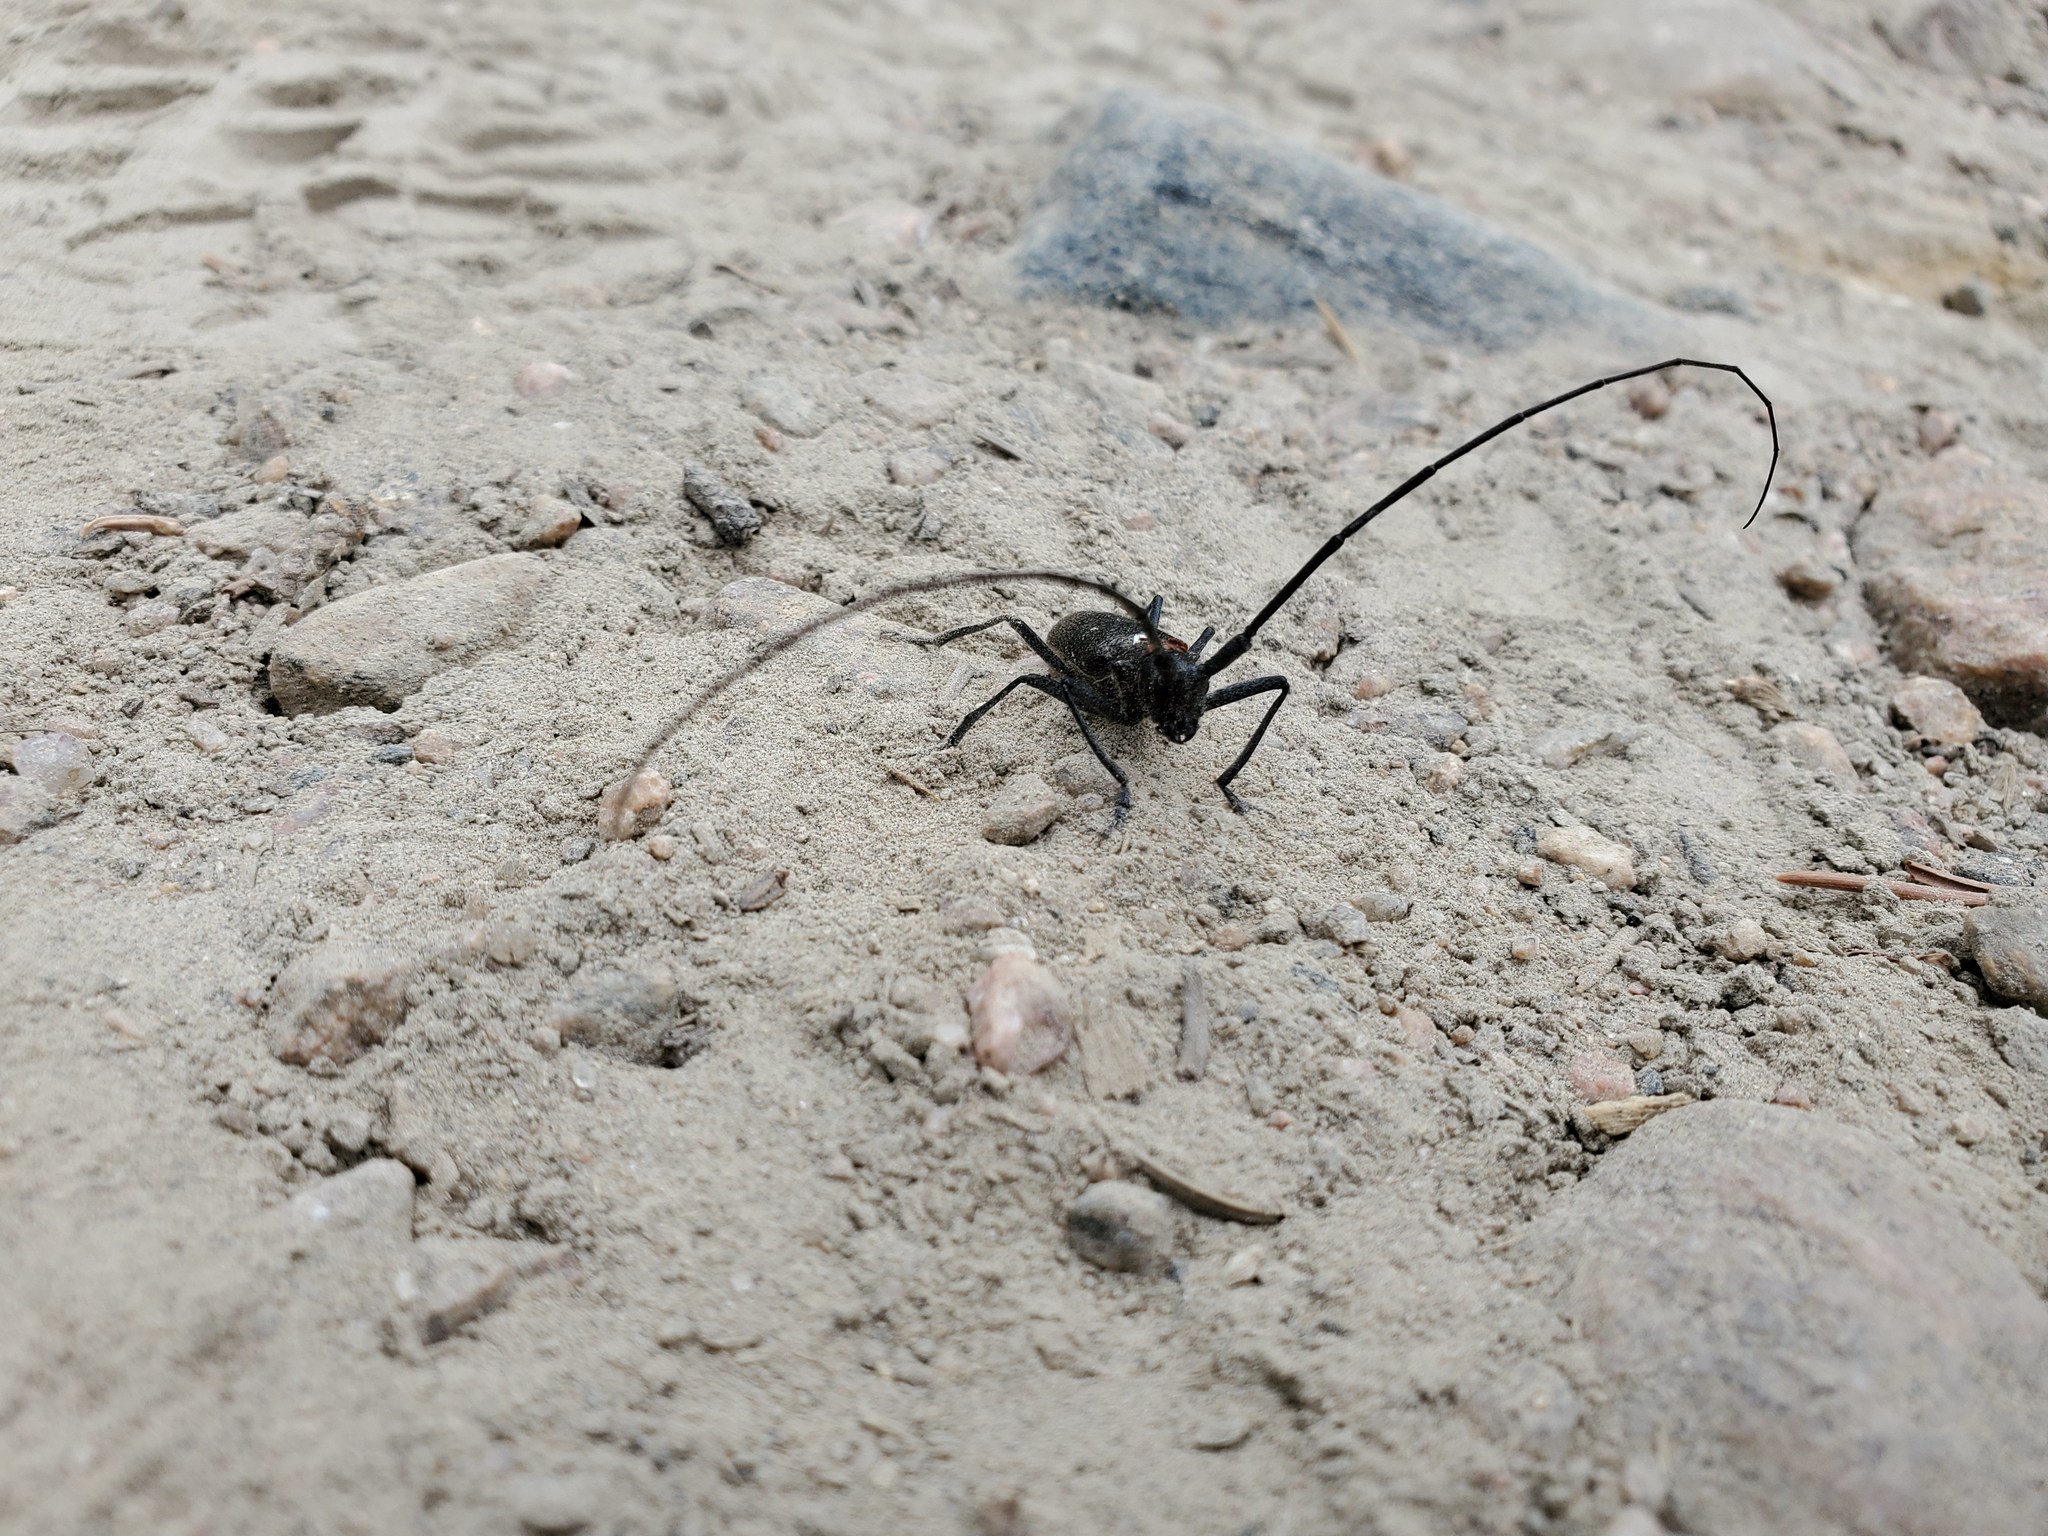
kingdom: Animalia
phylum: Arthropoda
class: Insecta
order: Coleoptera
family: Cerambycidae
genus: Monochamus
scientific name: Monochamus scutellatus
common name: White-spotted sawyer beetle
